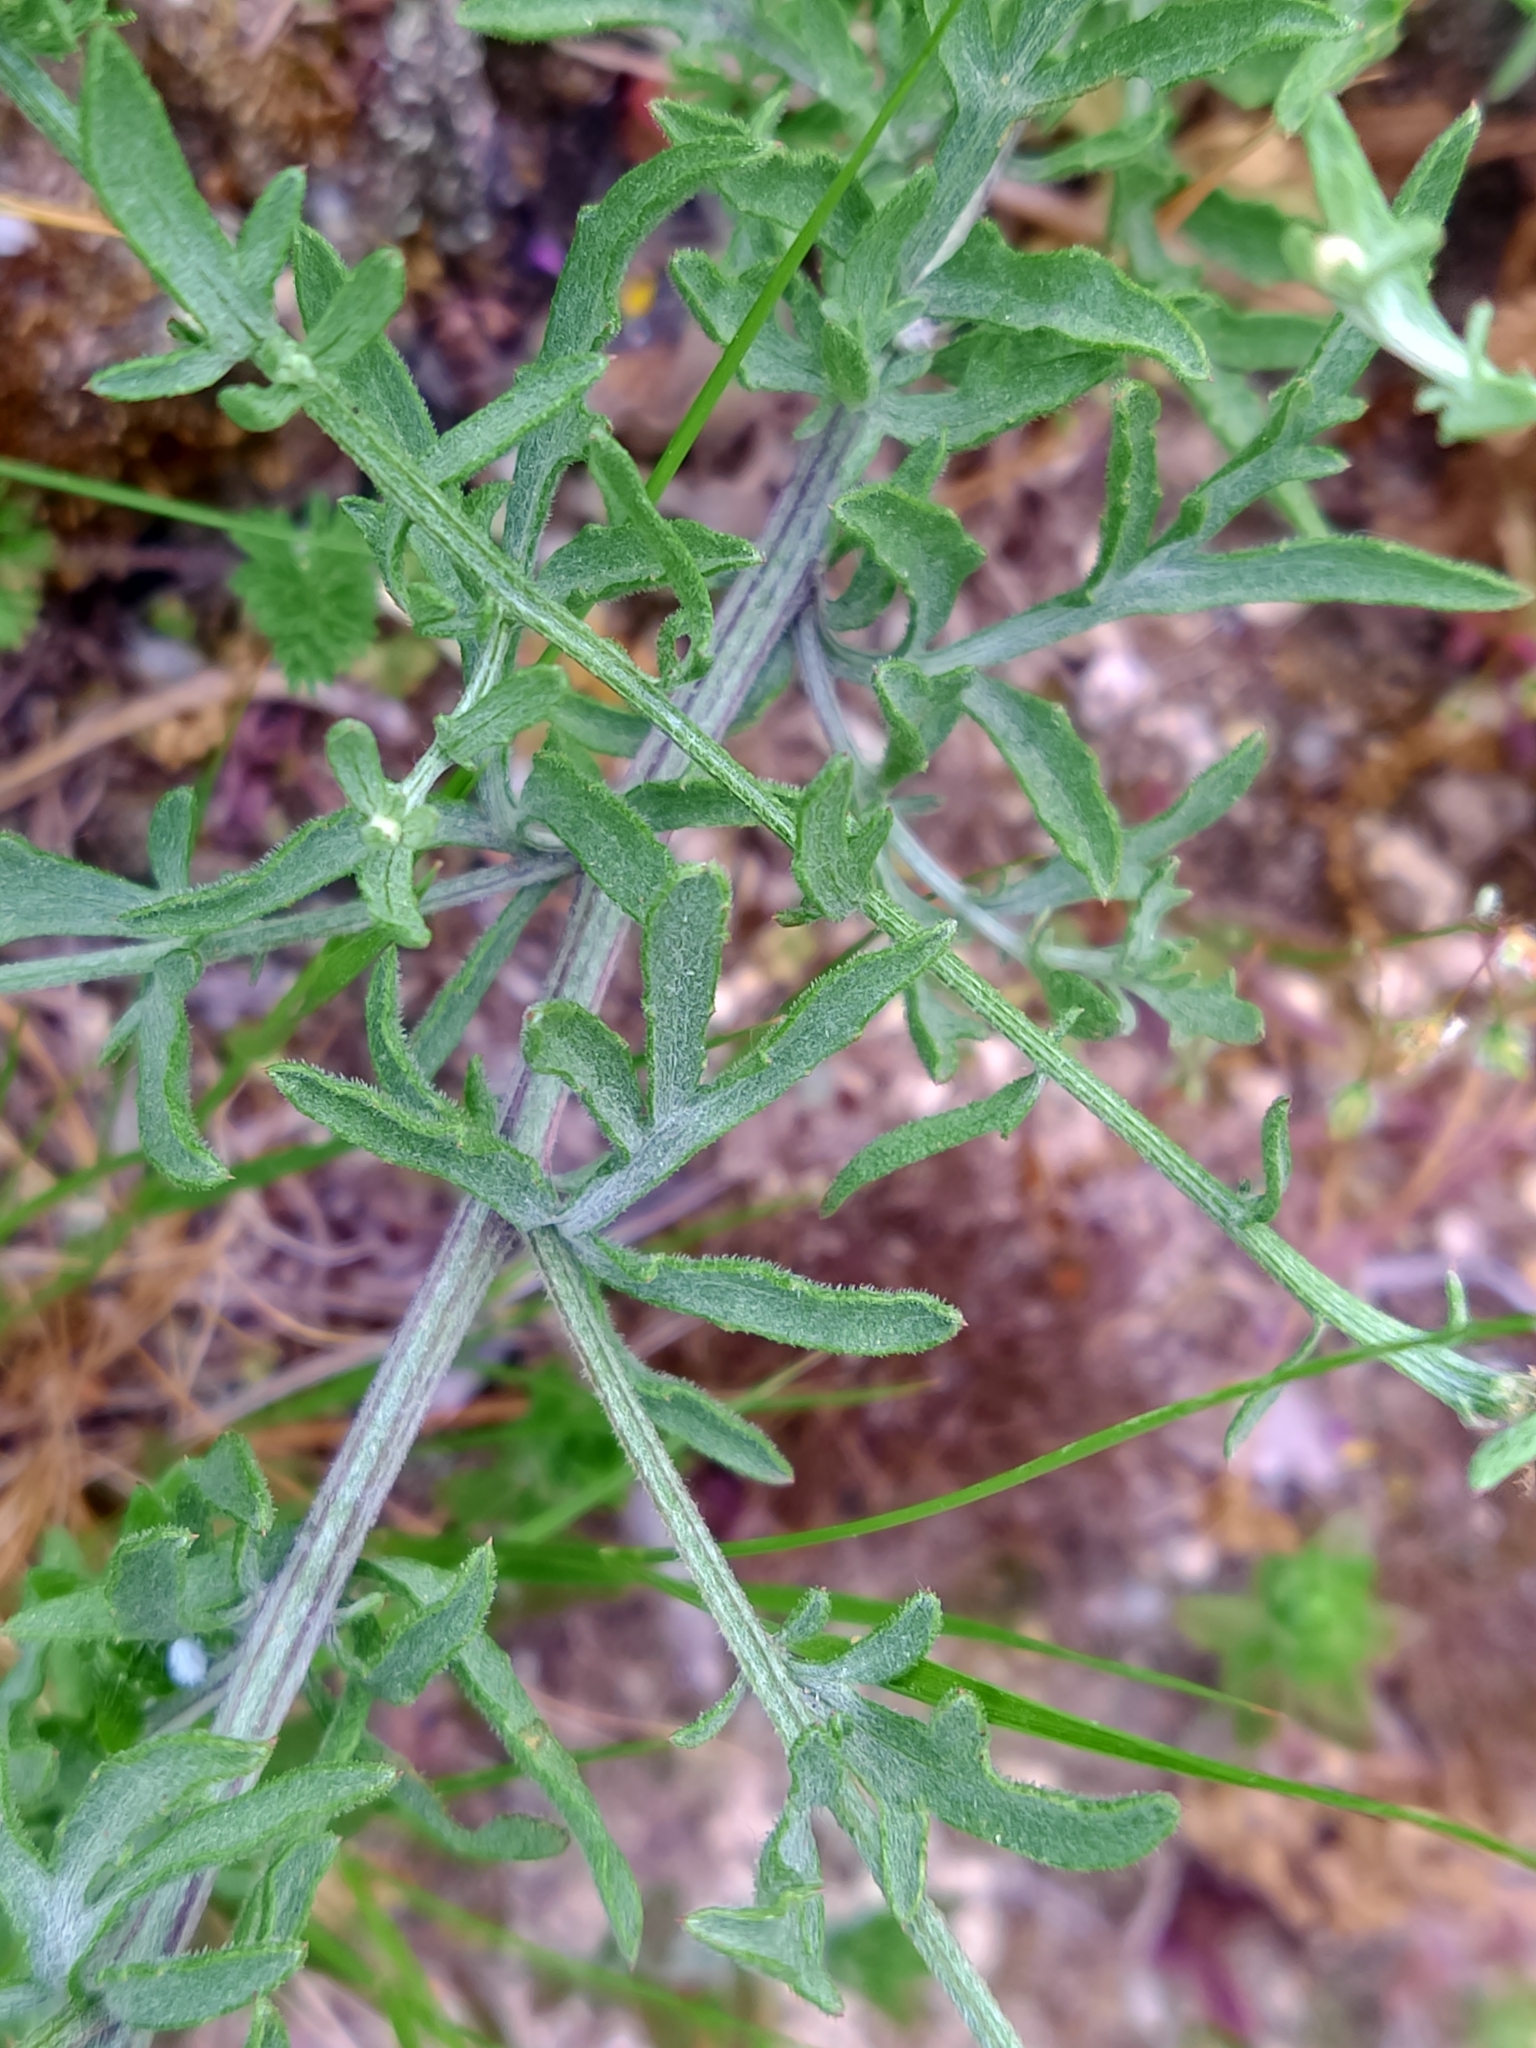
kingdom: Plantae
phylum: Tracheophyta
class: Magnoliopsida
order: Asterales
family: Asteraceae
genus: Centaurea
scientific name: Centaurea langei
